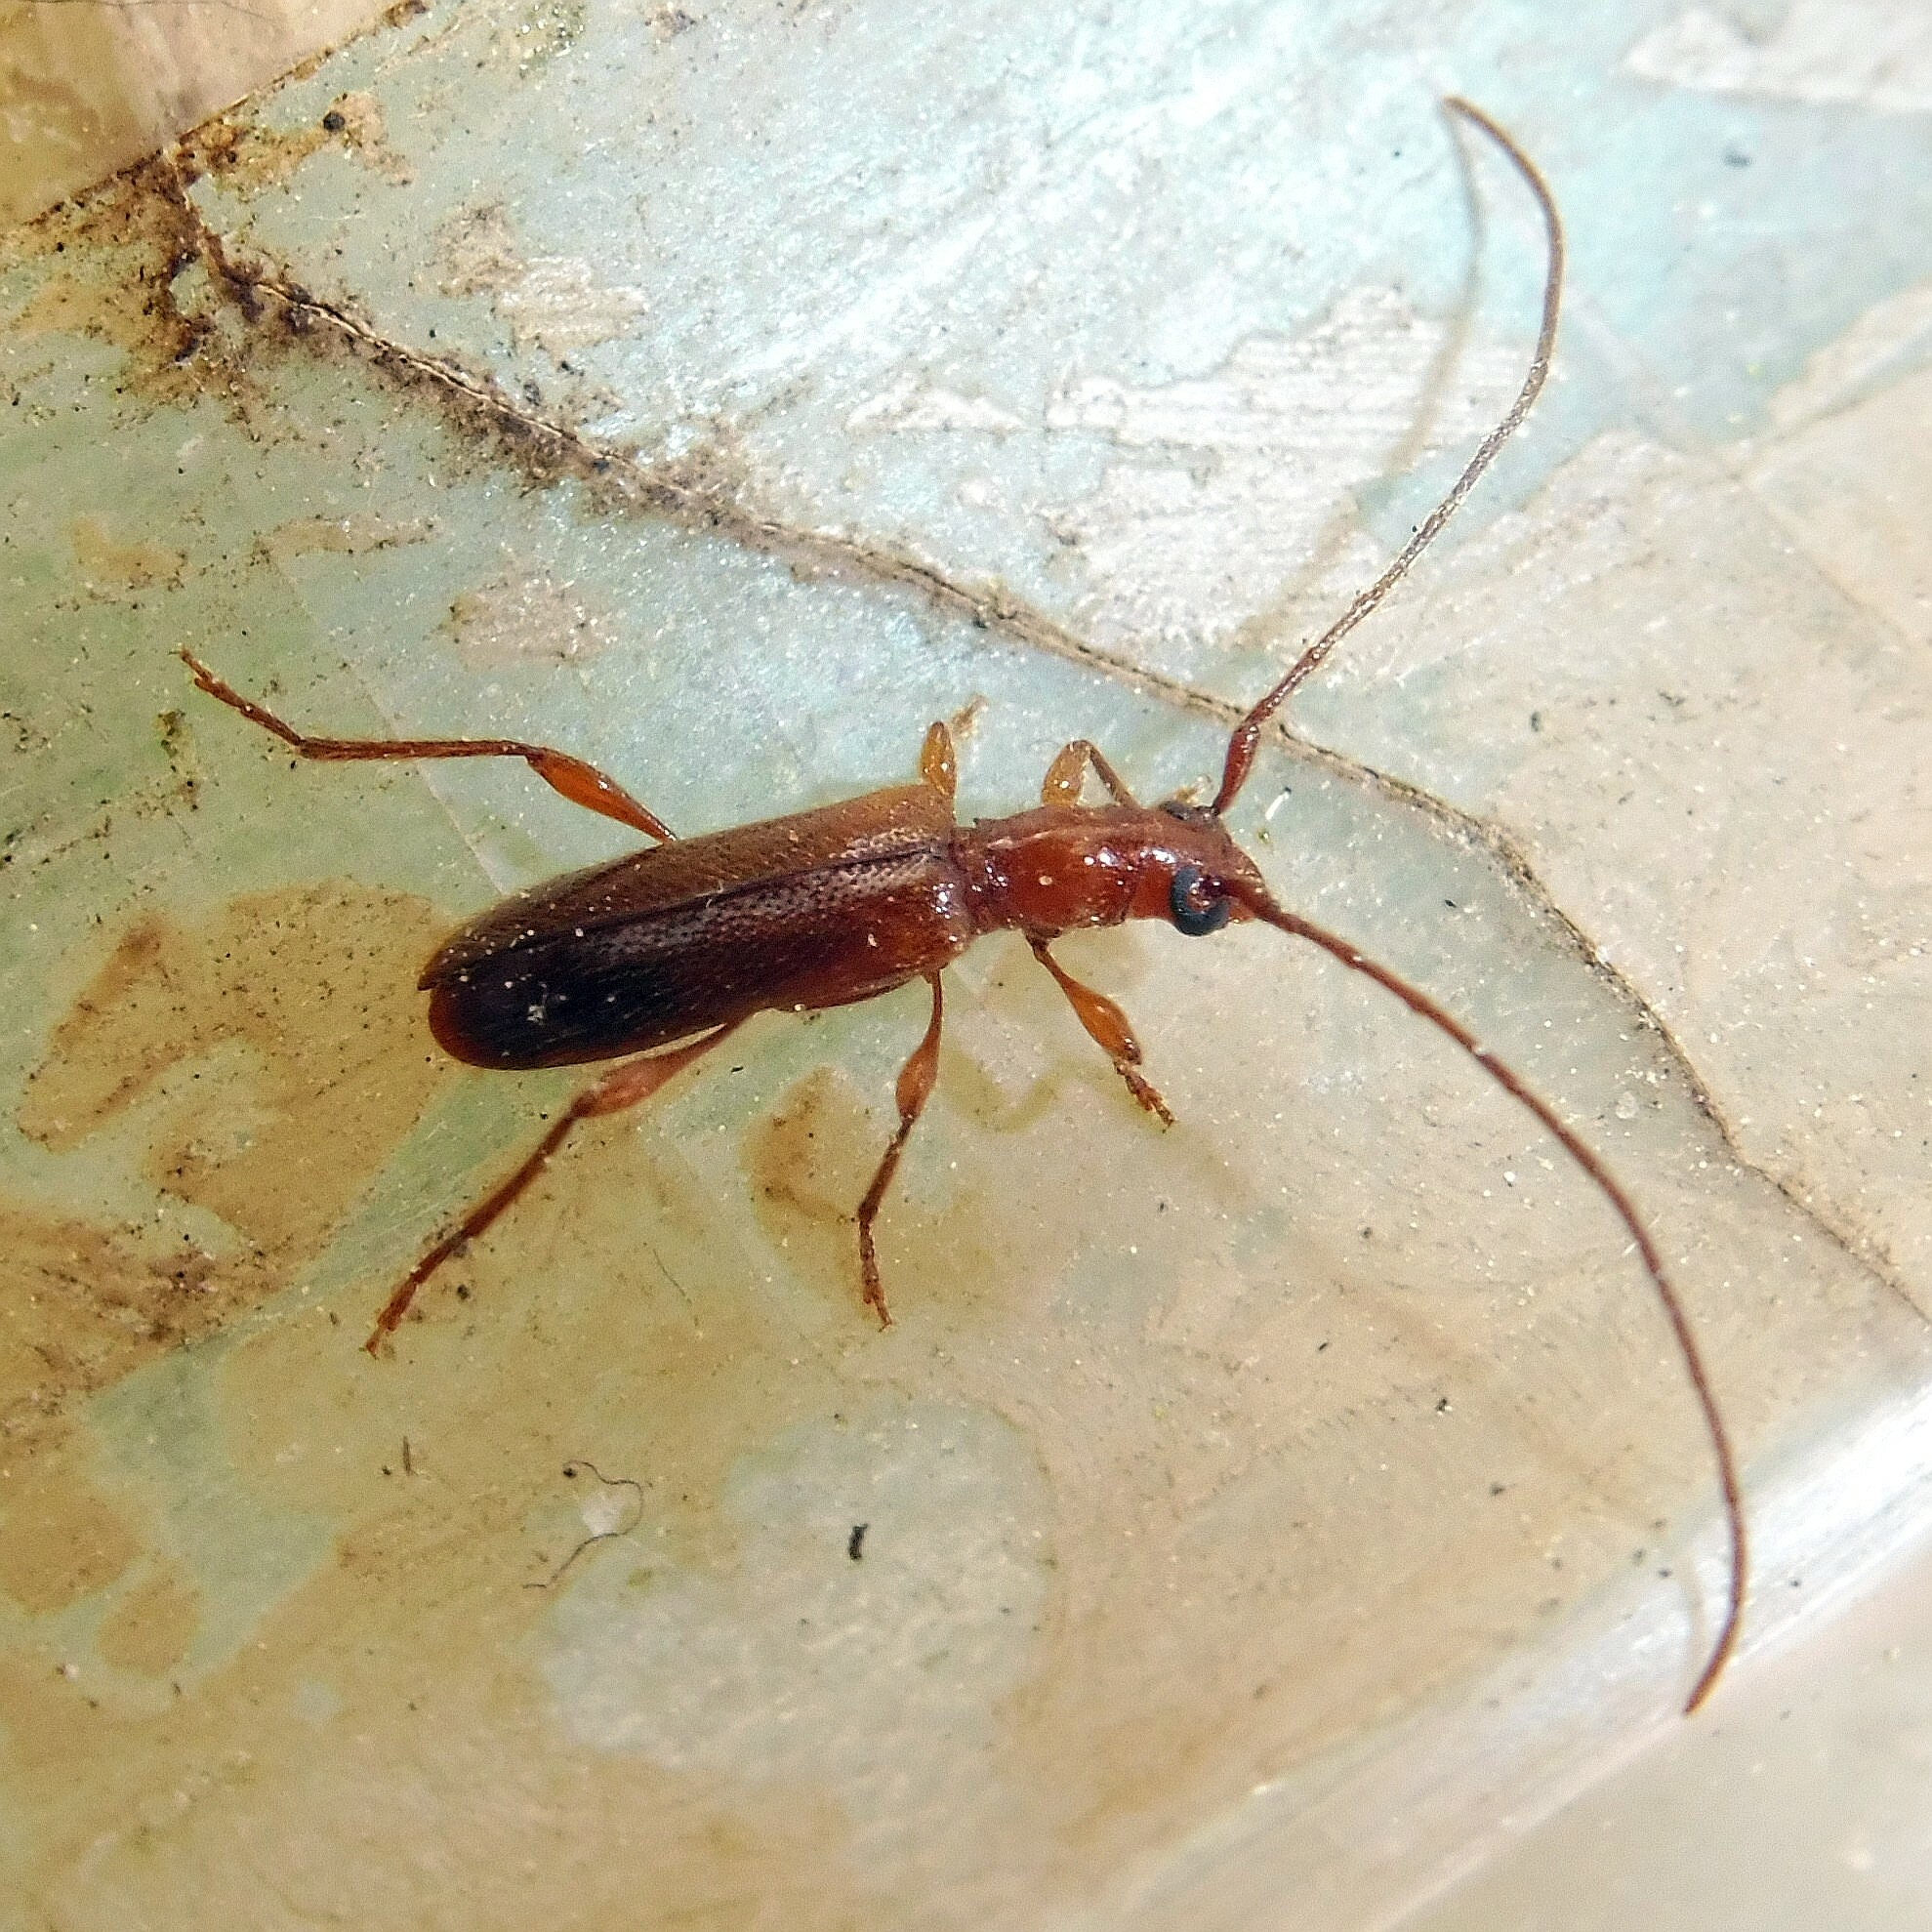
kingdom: Animalia
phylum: Arthropoda
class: Insecta
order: Coleoptera
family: Cerambycidae
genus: Obrium
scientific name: Obrium brunneum
